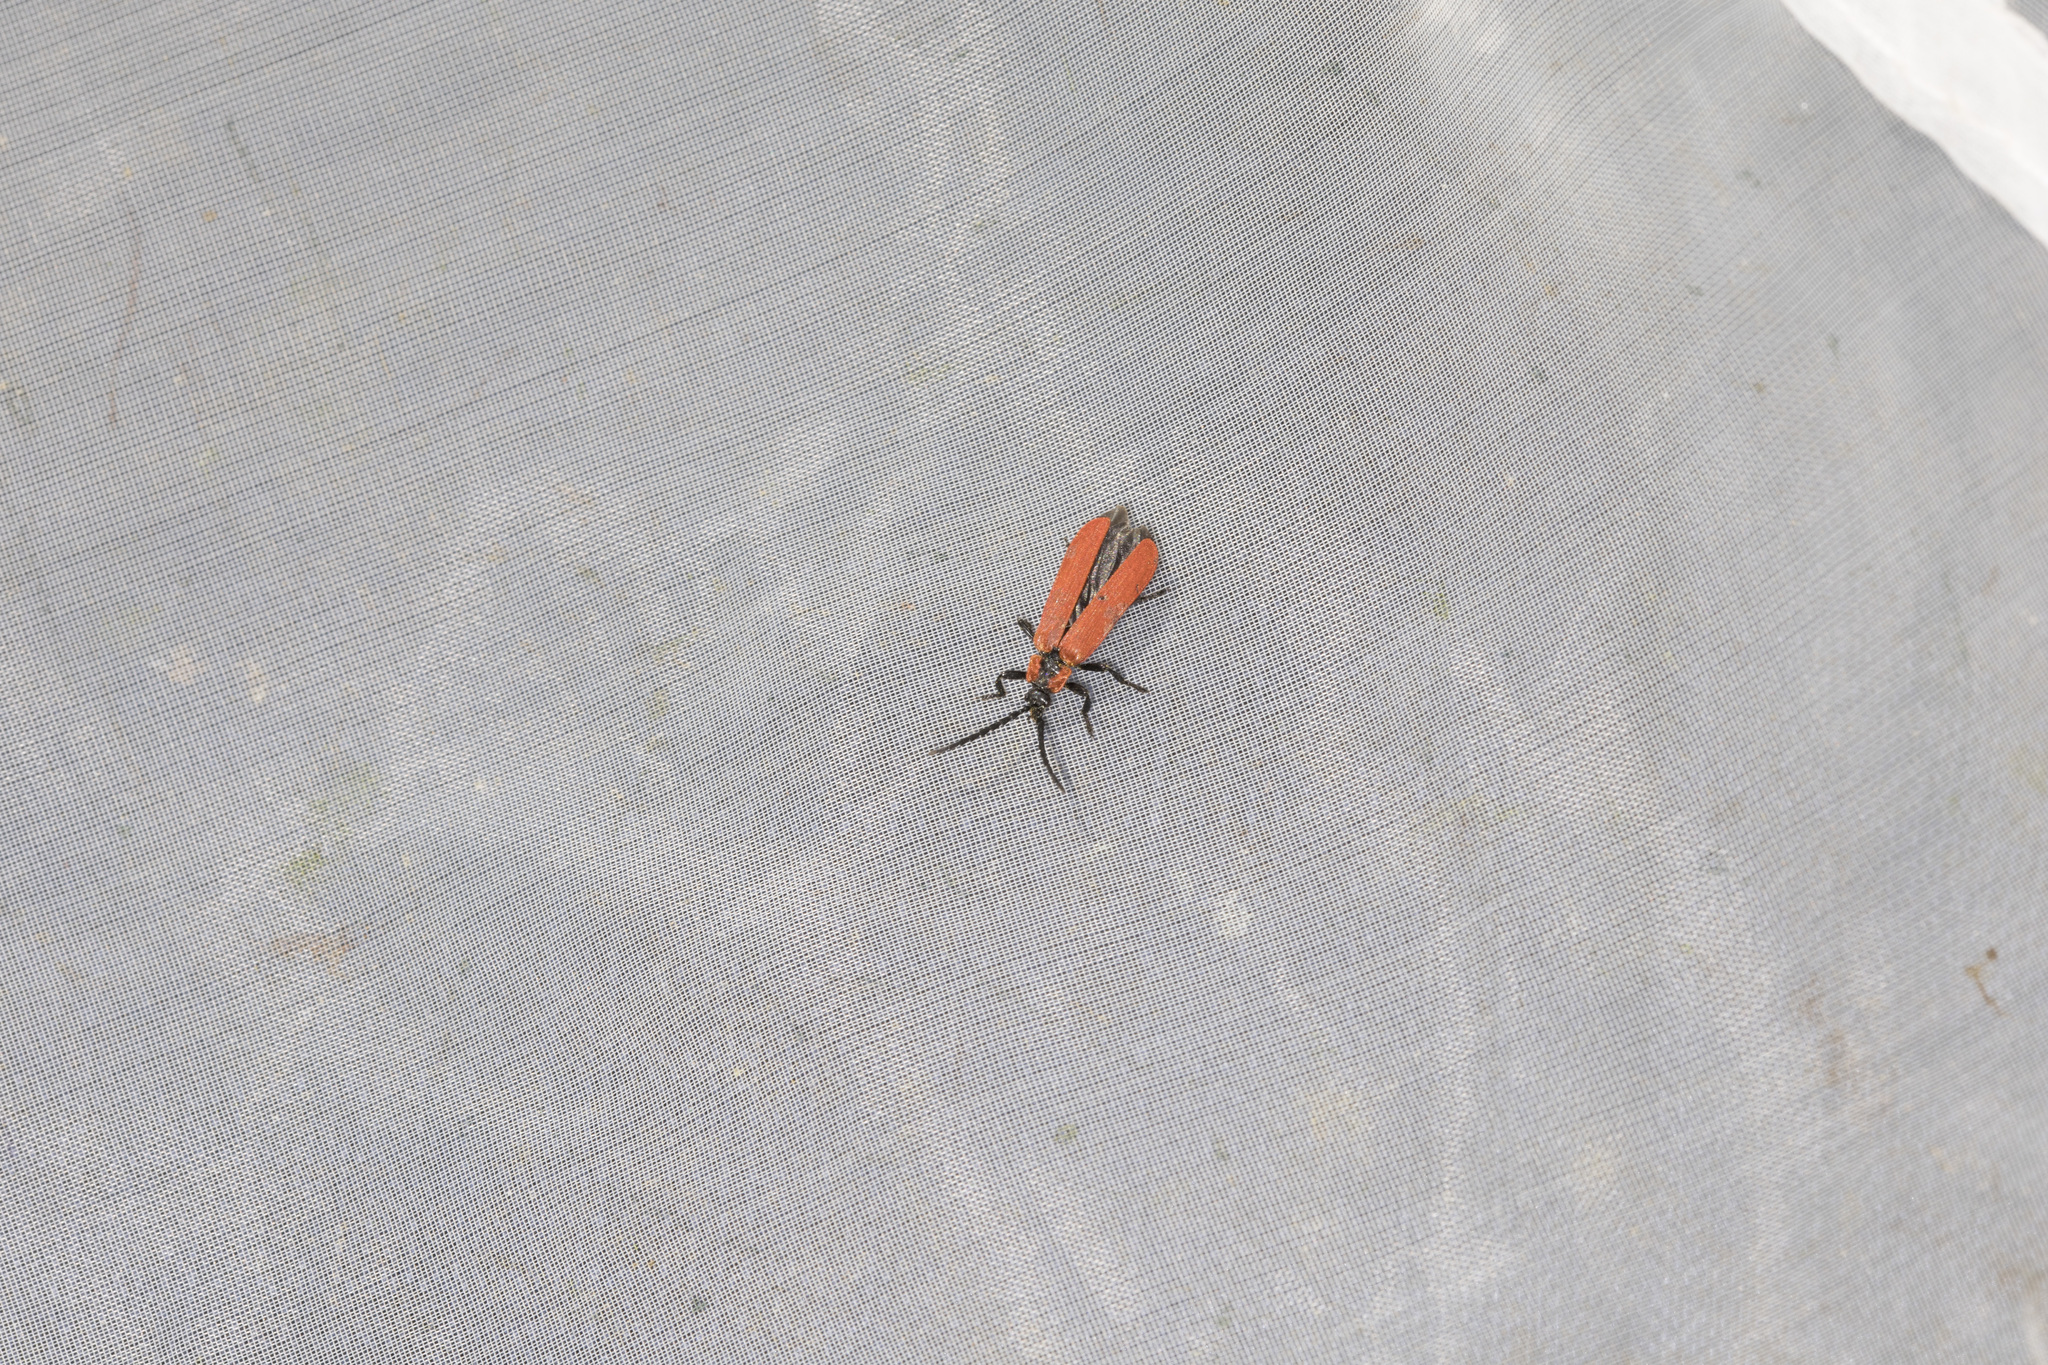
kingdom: Animalia
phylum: Arthropoda
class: Insecta
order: Coleoptera
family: Lycidae
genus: Lygistopterus
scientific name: Lygistopterus sanguineus
